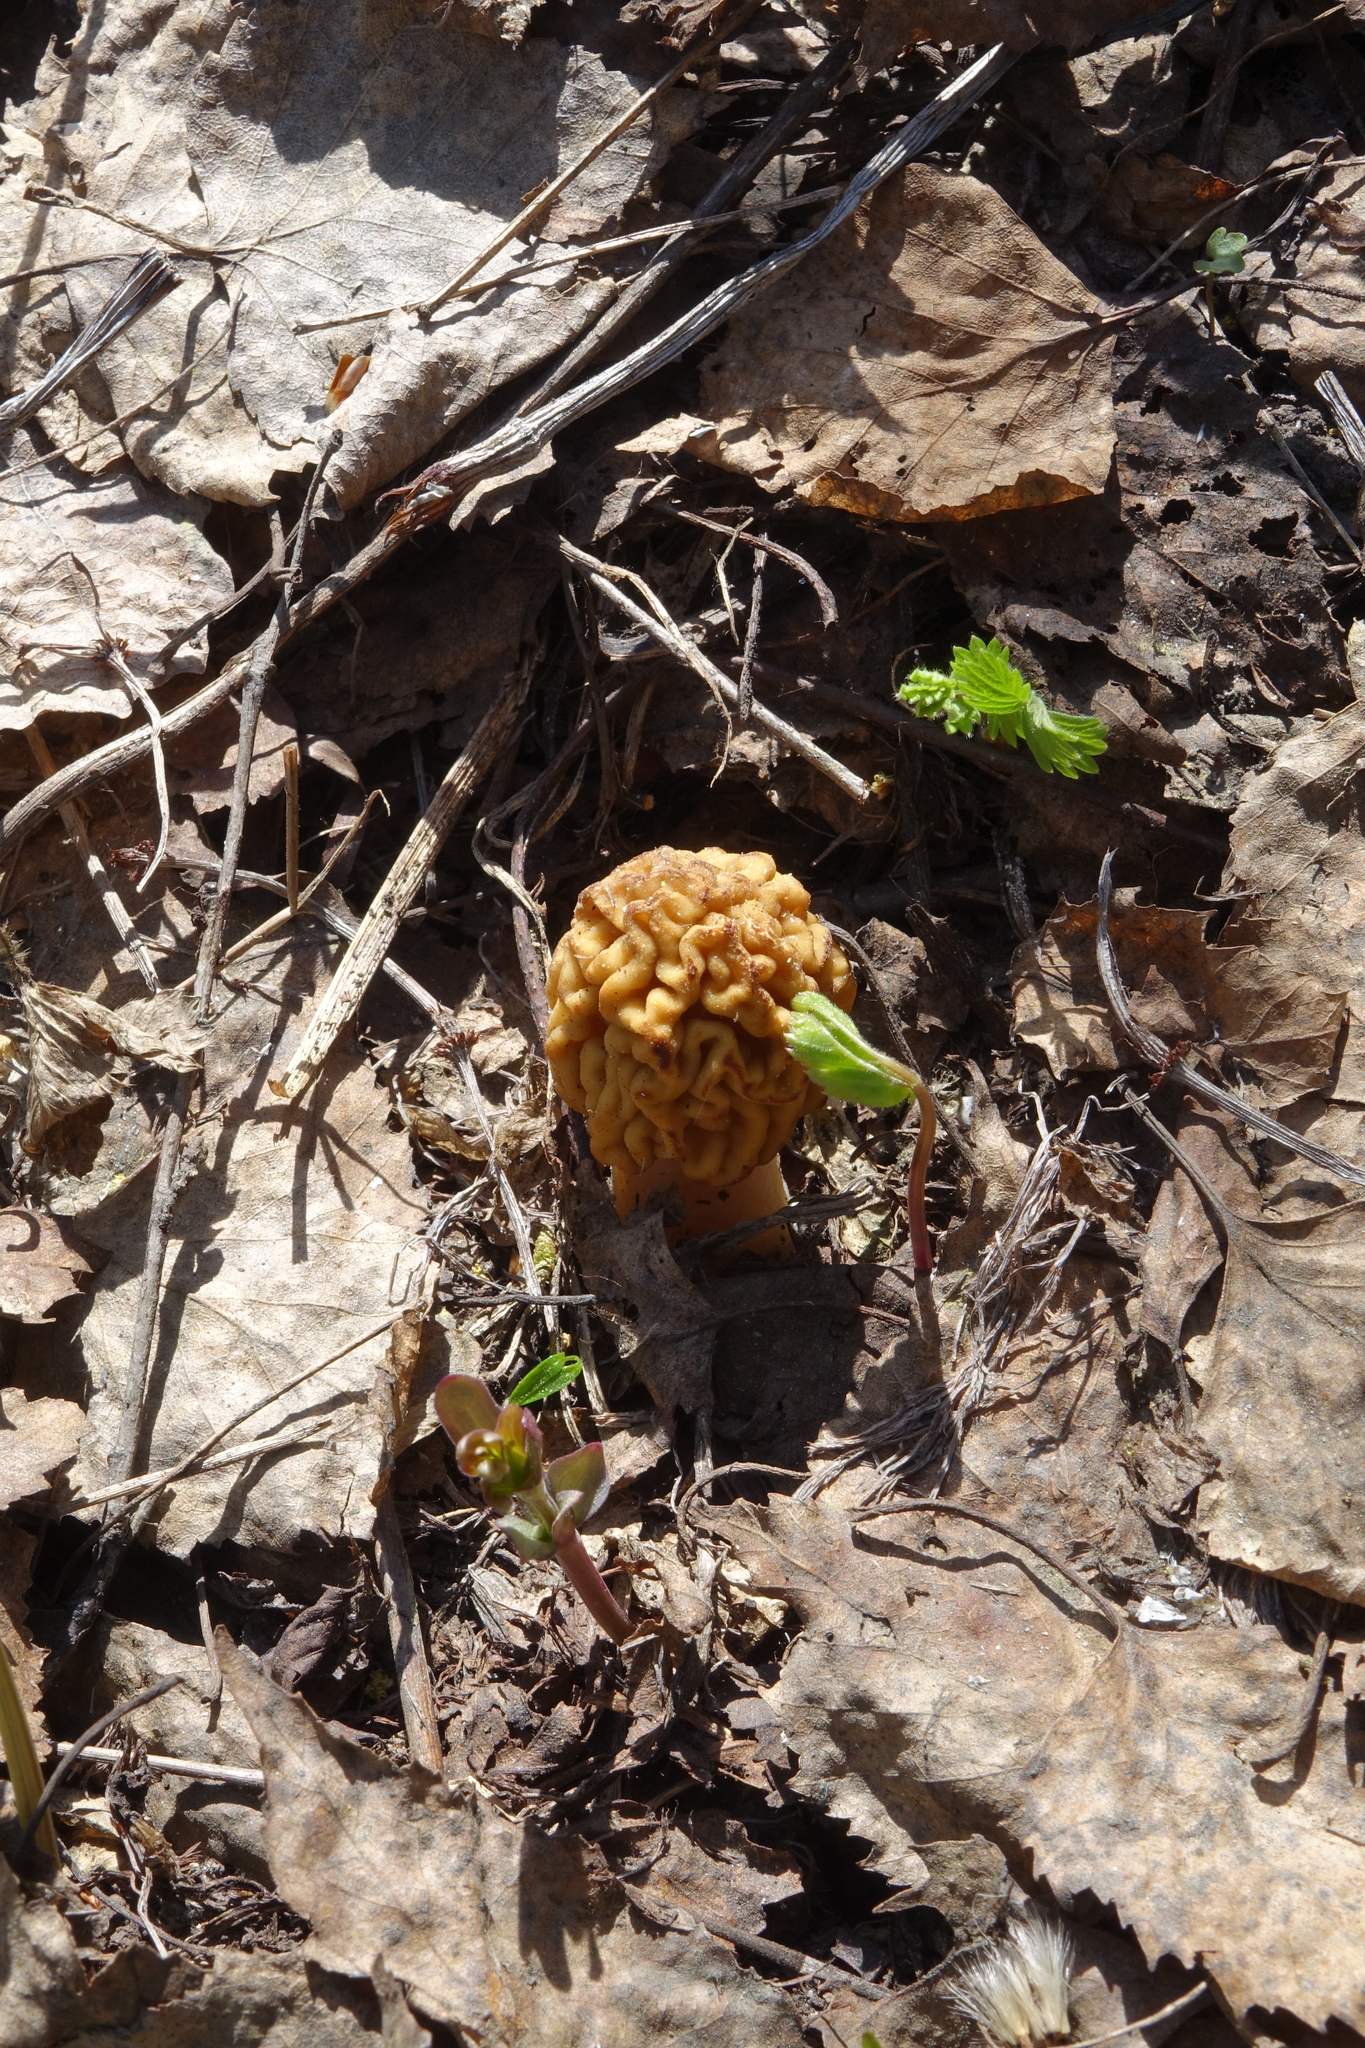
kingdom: Fungi
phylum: Ascomycota
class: Pezizomycetes
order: Pezizales
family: Morchellaceae
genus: Verpa
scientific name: Verpa bohemica
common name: Wrinkled thimble morel
